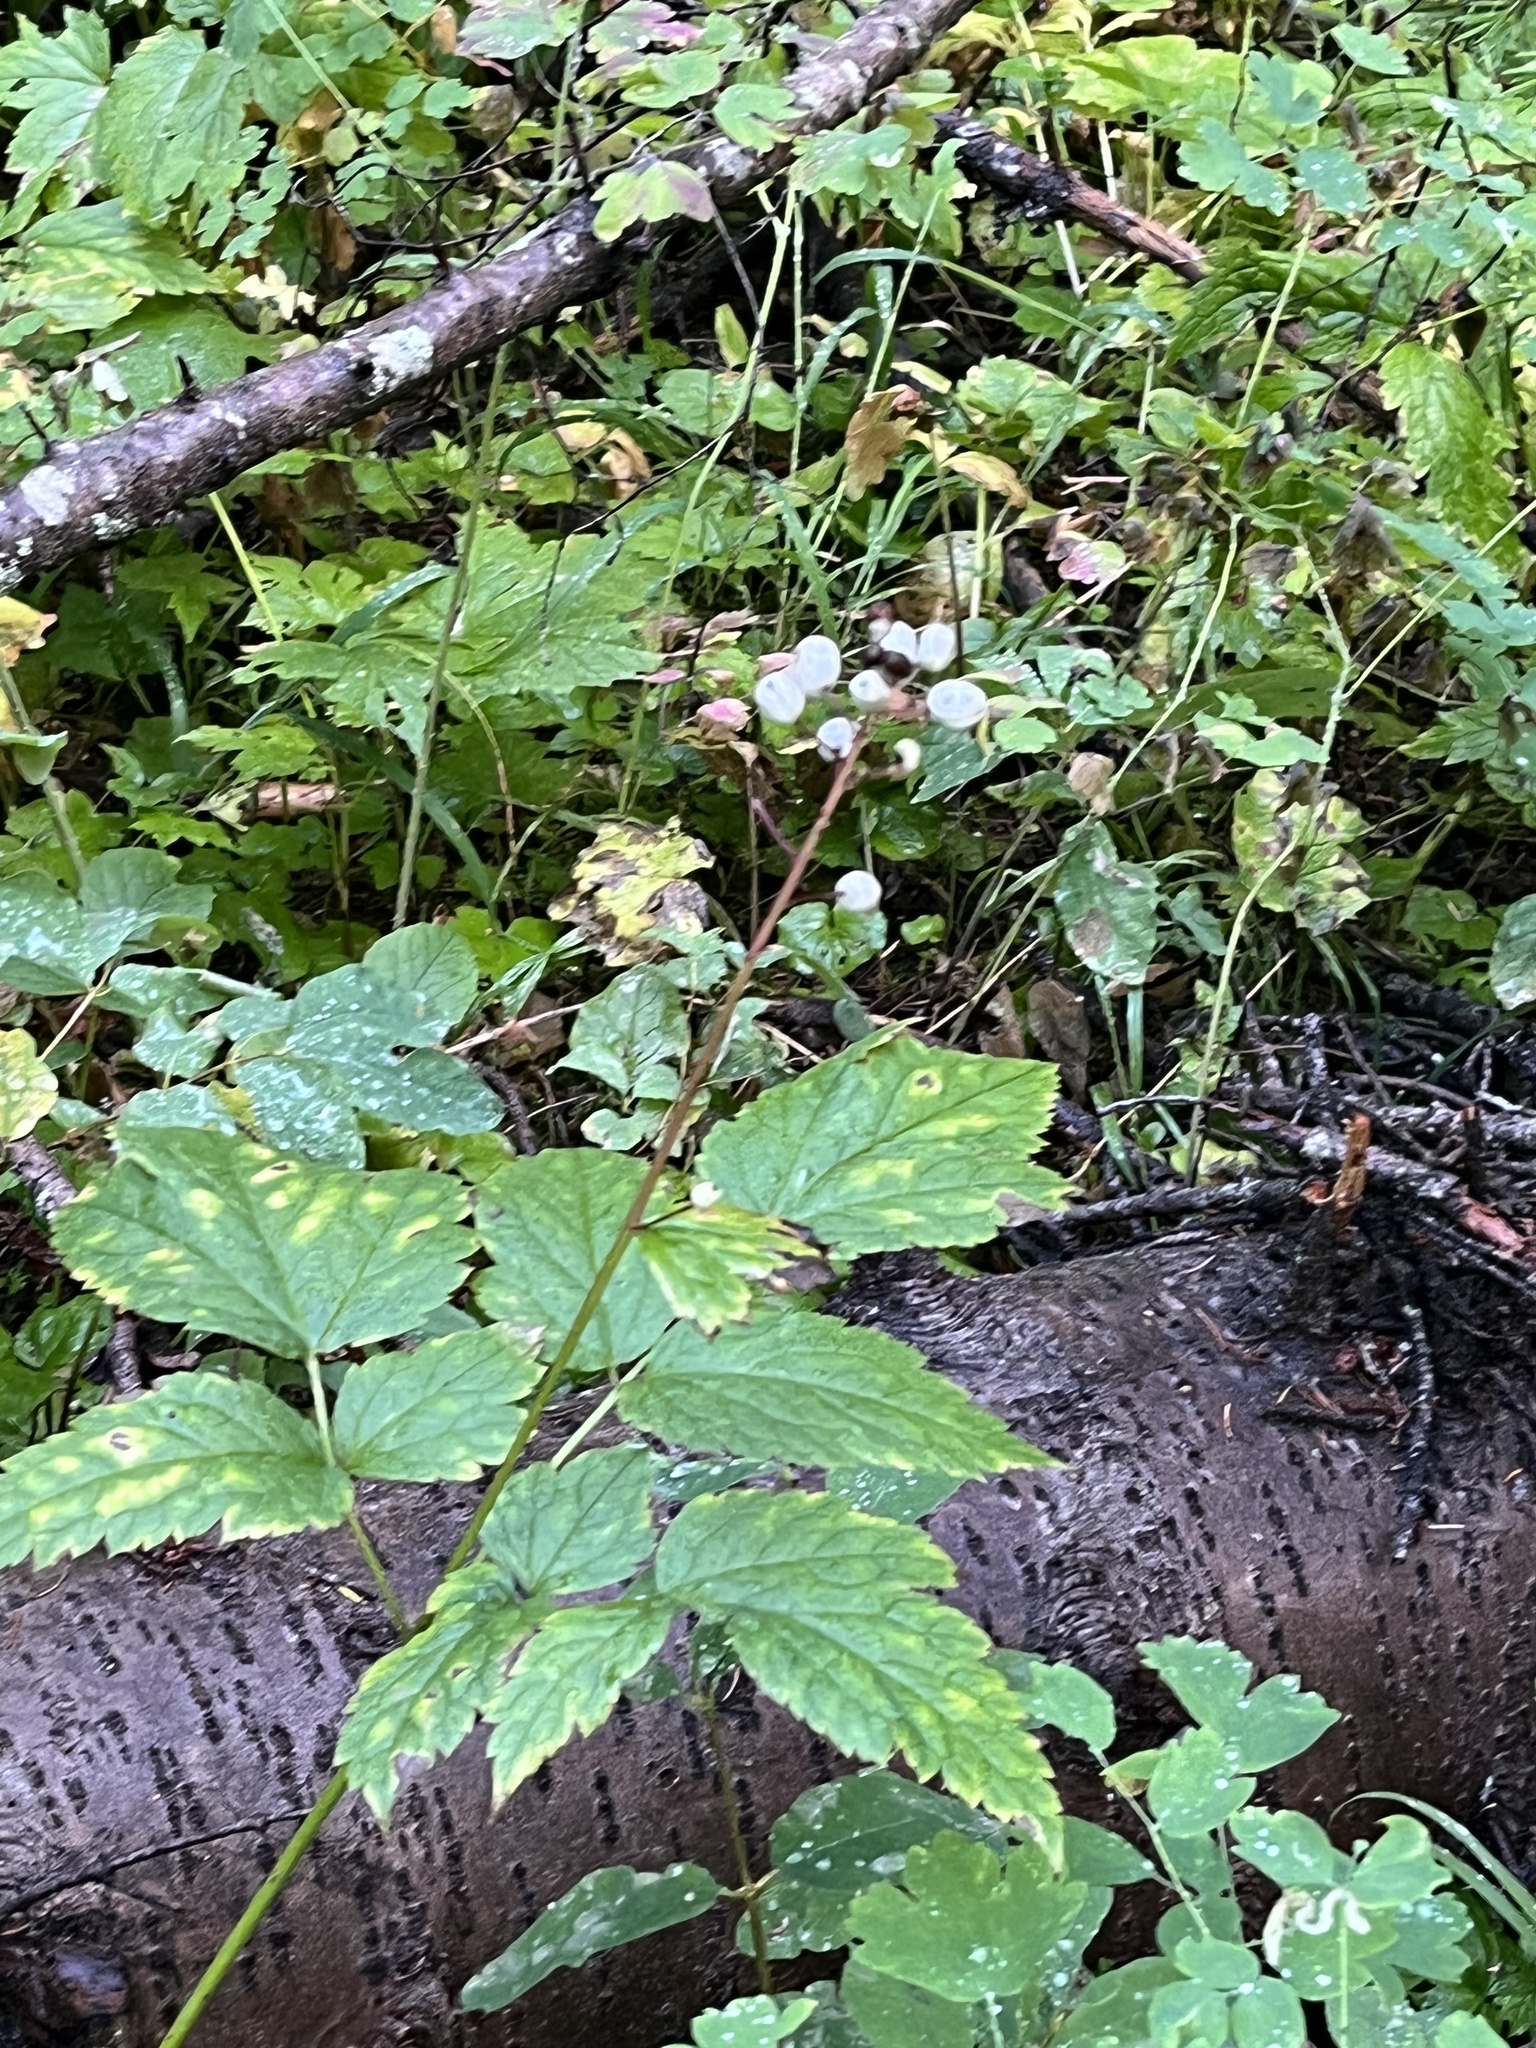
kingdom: Plantae
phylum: Tracheophyta
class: Magnoliopsida
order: Ranunculales
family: Ranunculaceae
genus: Actaea
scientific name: Actaea rubra
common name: Red baneberry
